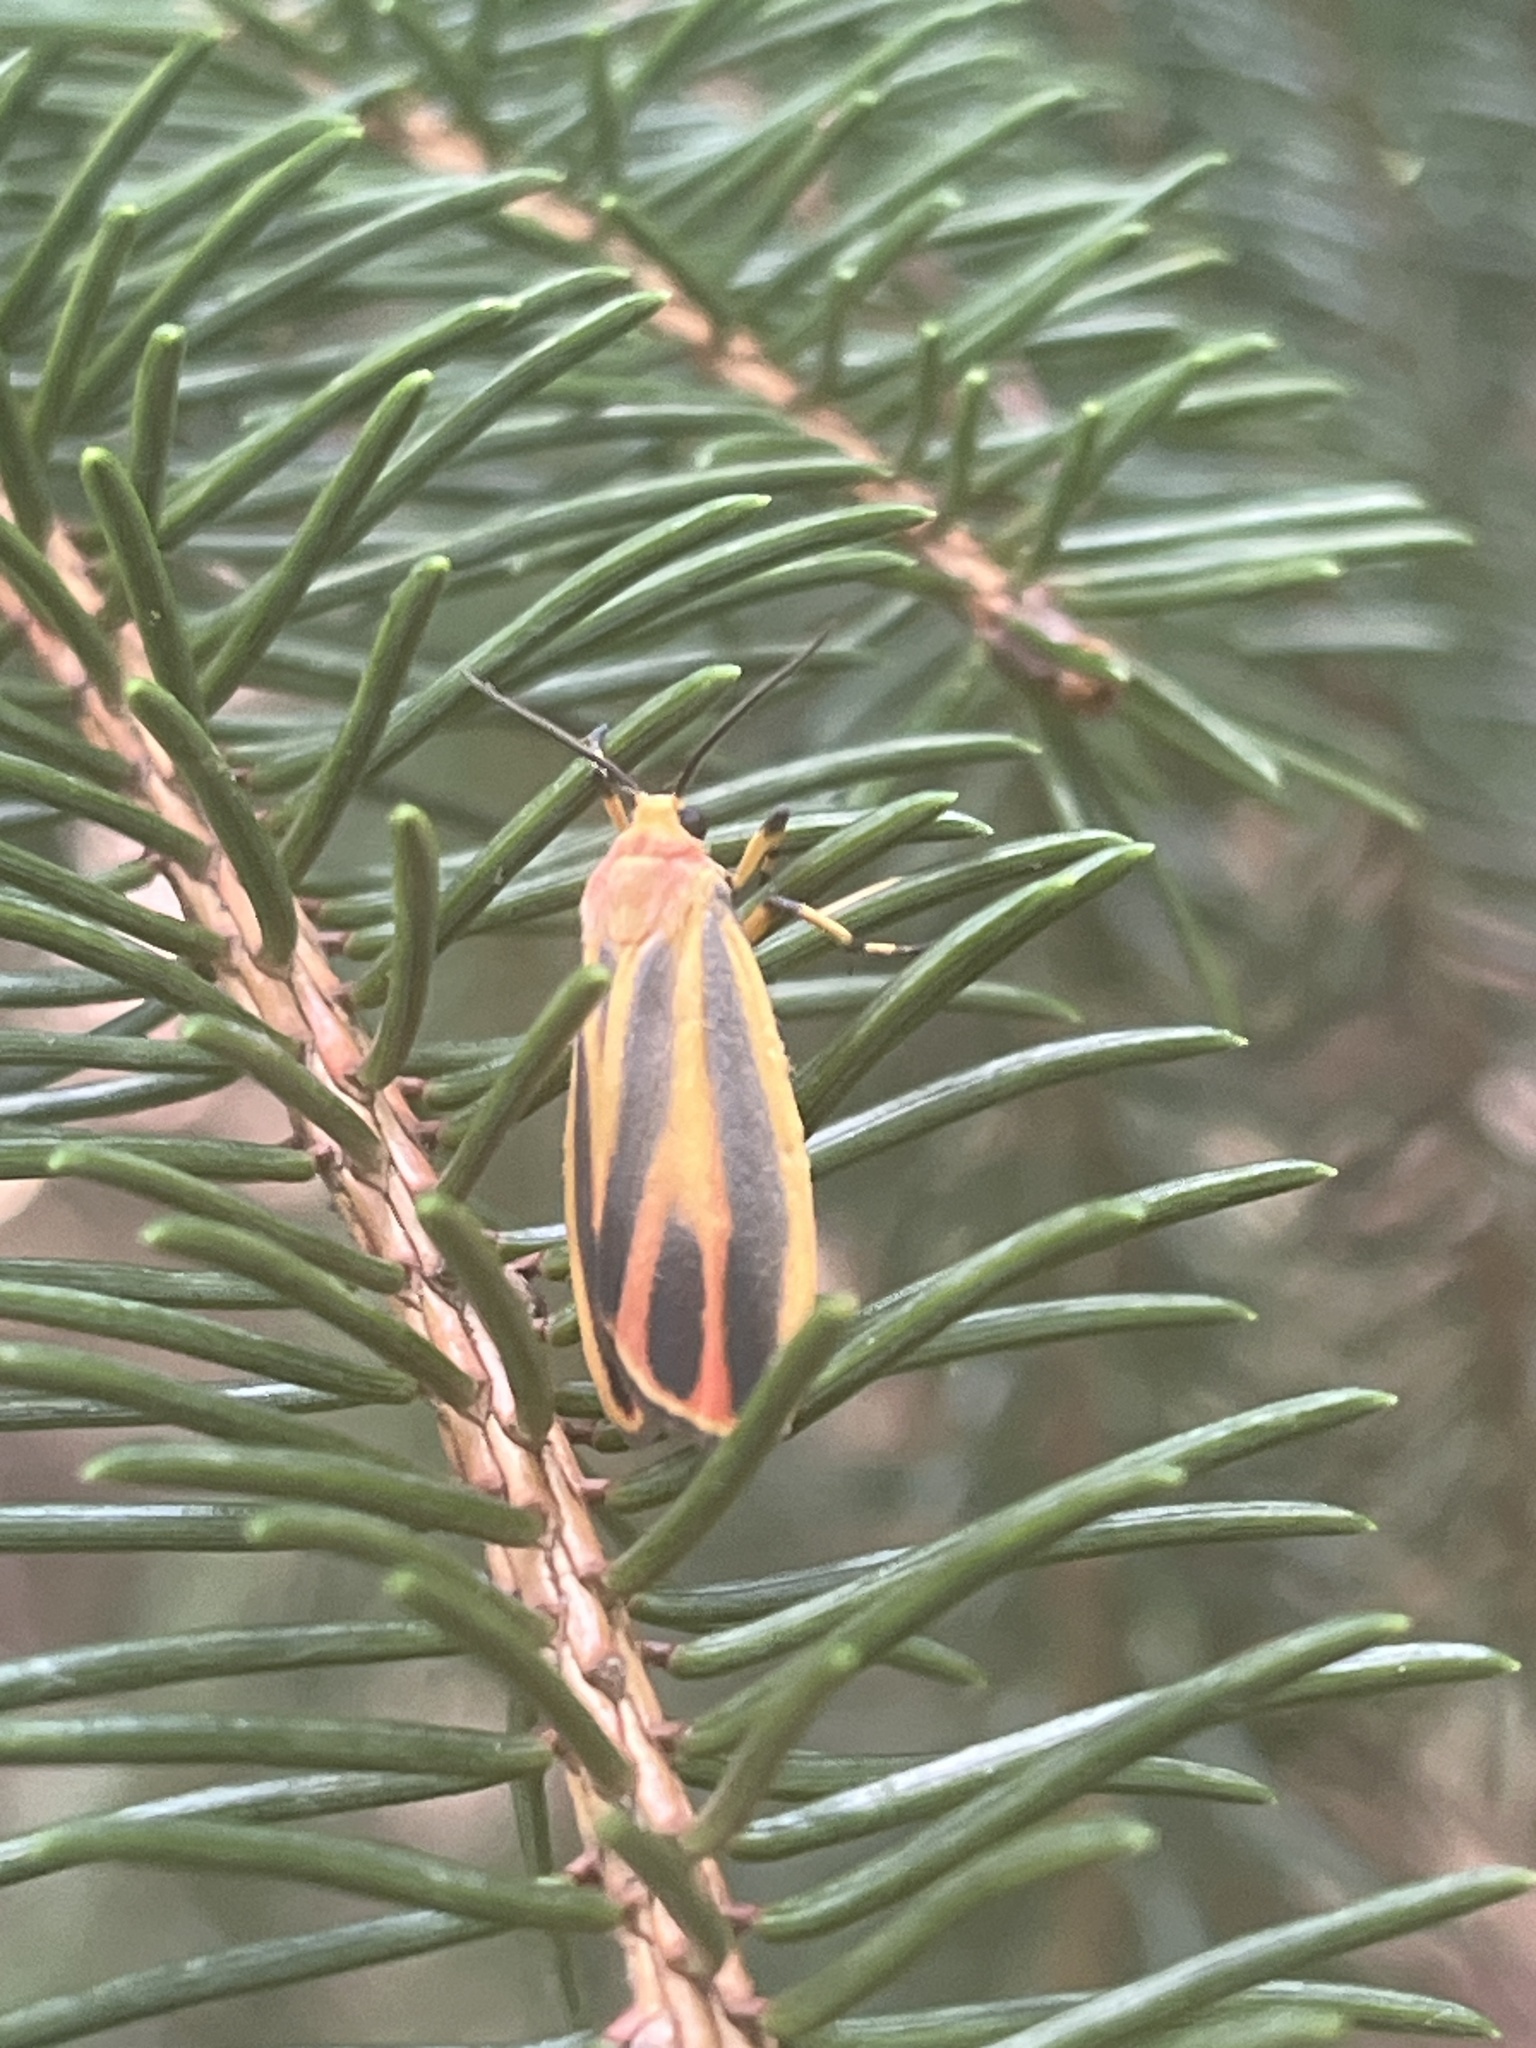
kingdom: Animalia
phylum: Arthropoda
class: Insecta
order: Lepidoptera
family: Erebidae
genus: Hypoprepia
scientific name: Hypoprepia fucosa
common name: Painted lichen moth
